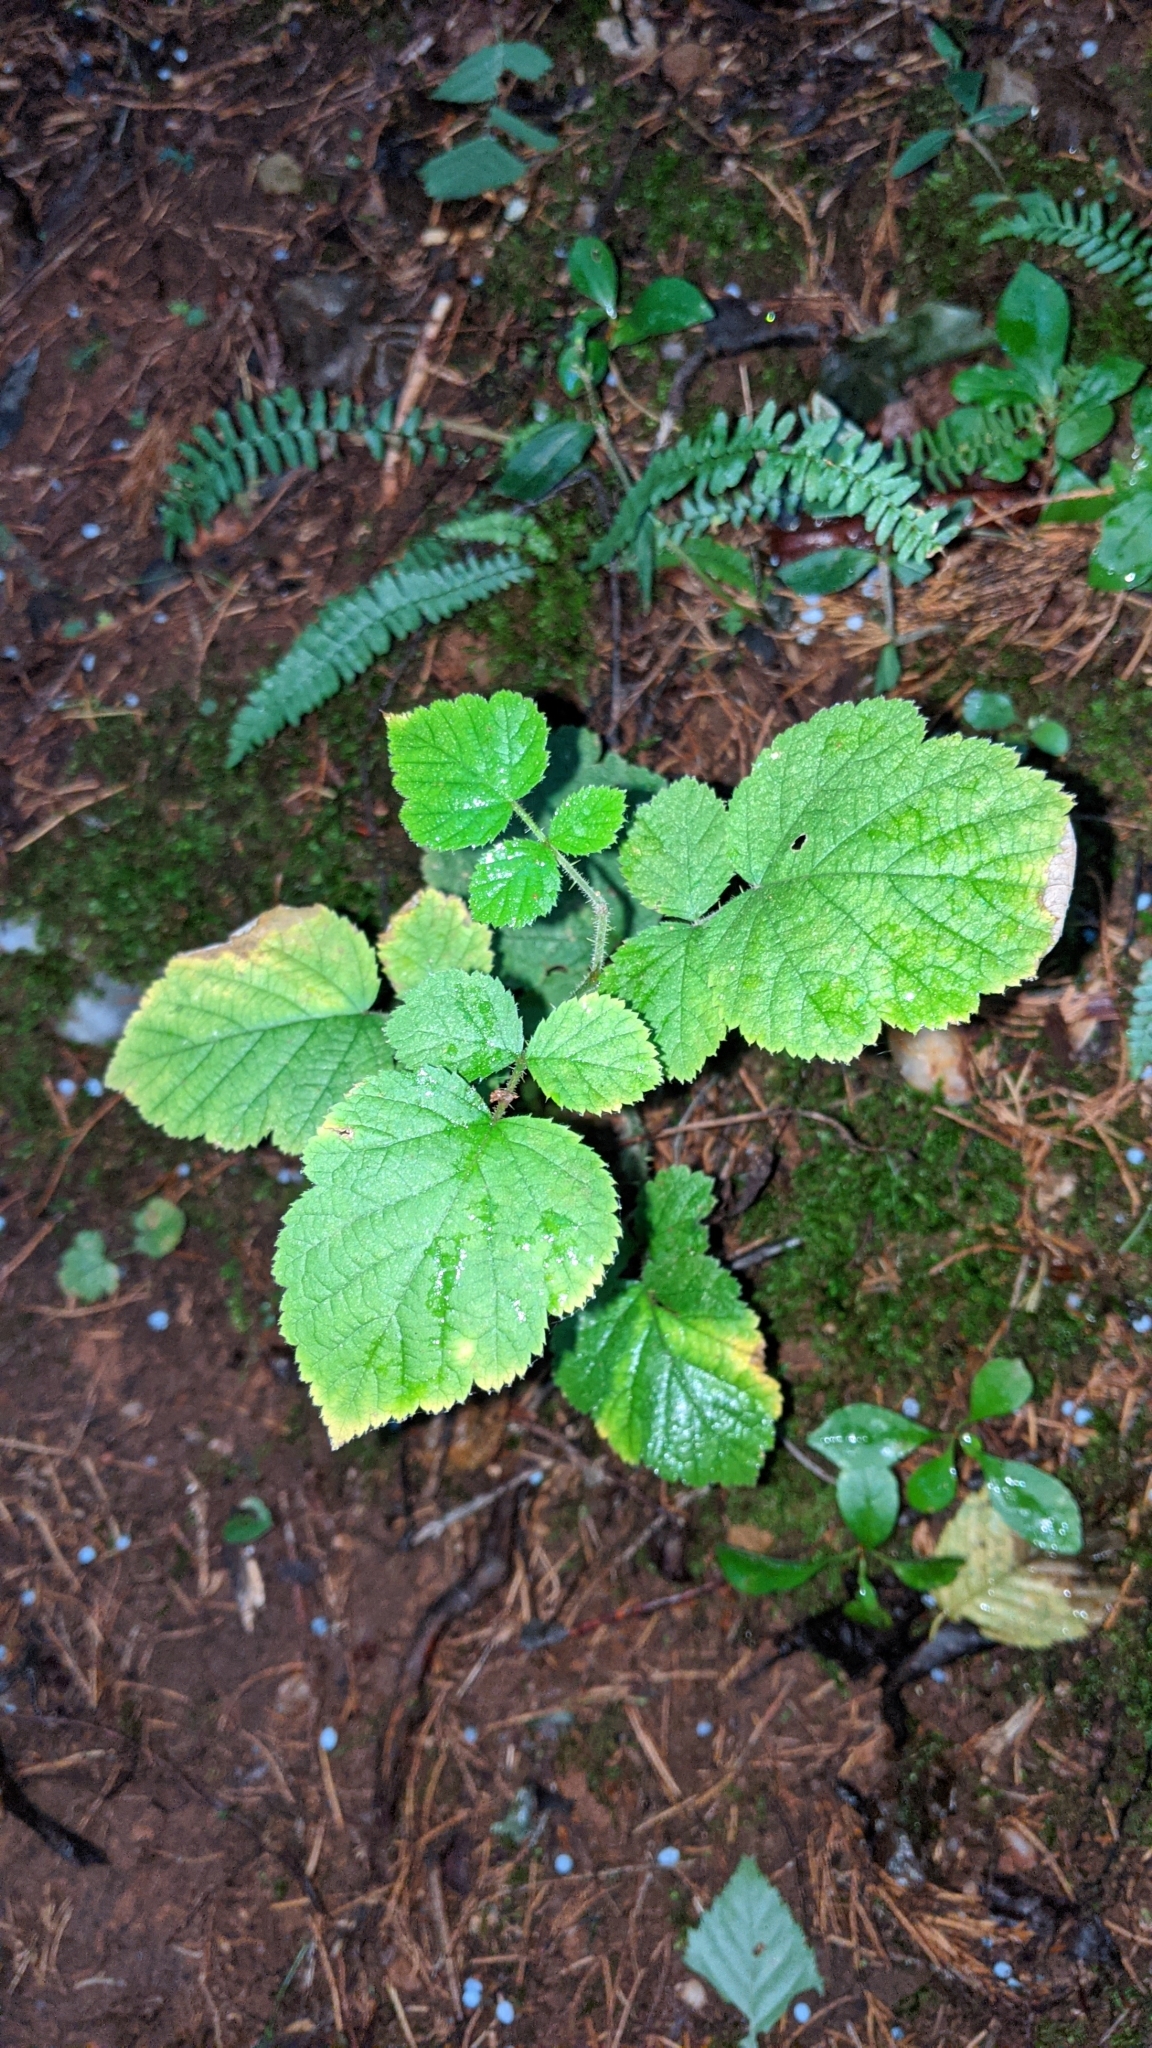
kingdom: Plantae
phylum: Tracheophyta
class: Magnoliopsida
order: Rosales
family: Rosaceae
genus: Rubus
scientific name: Rubus phoenicolasius
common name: Japanese wineberry
